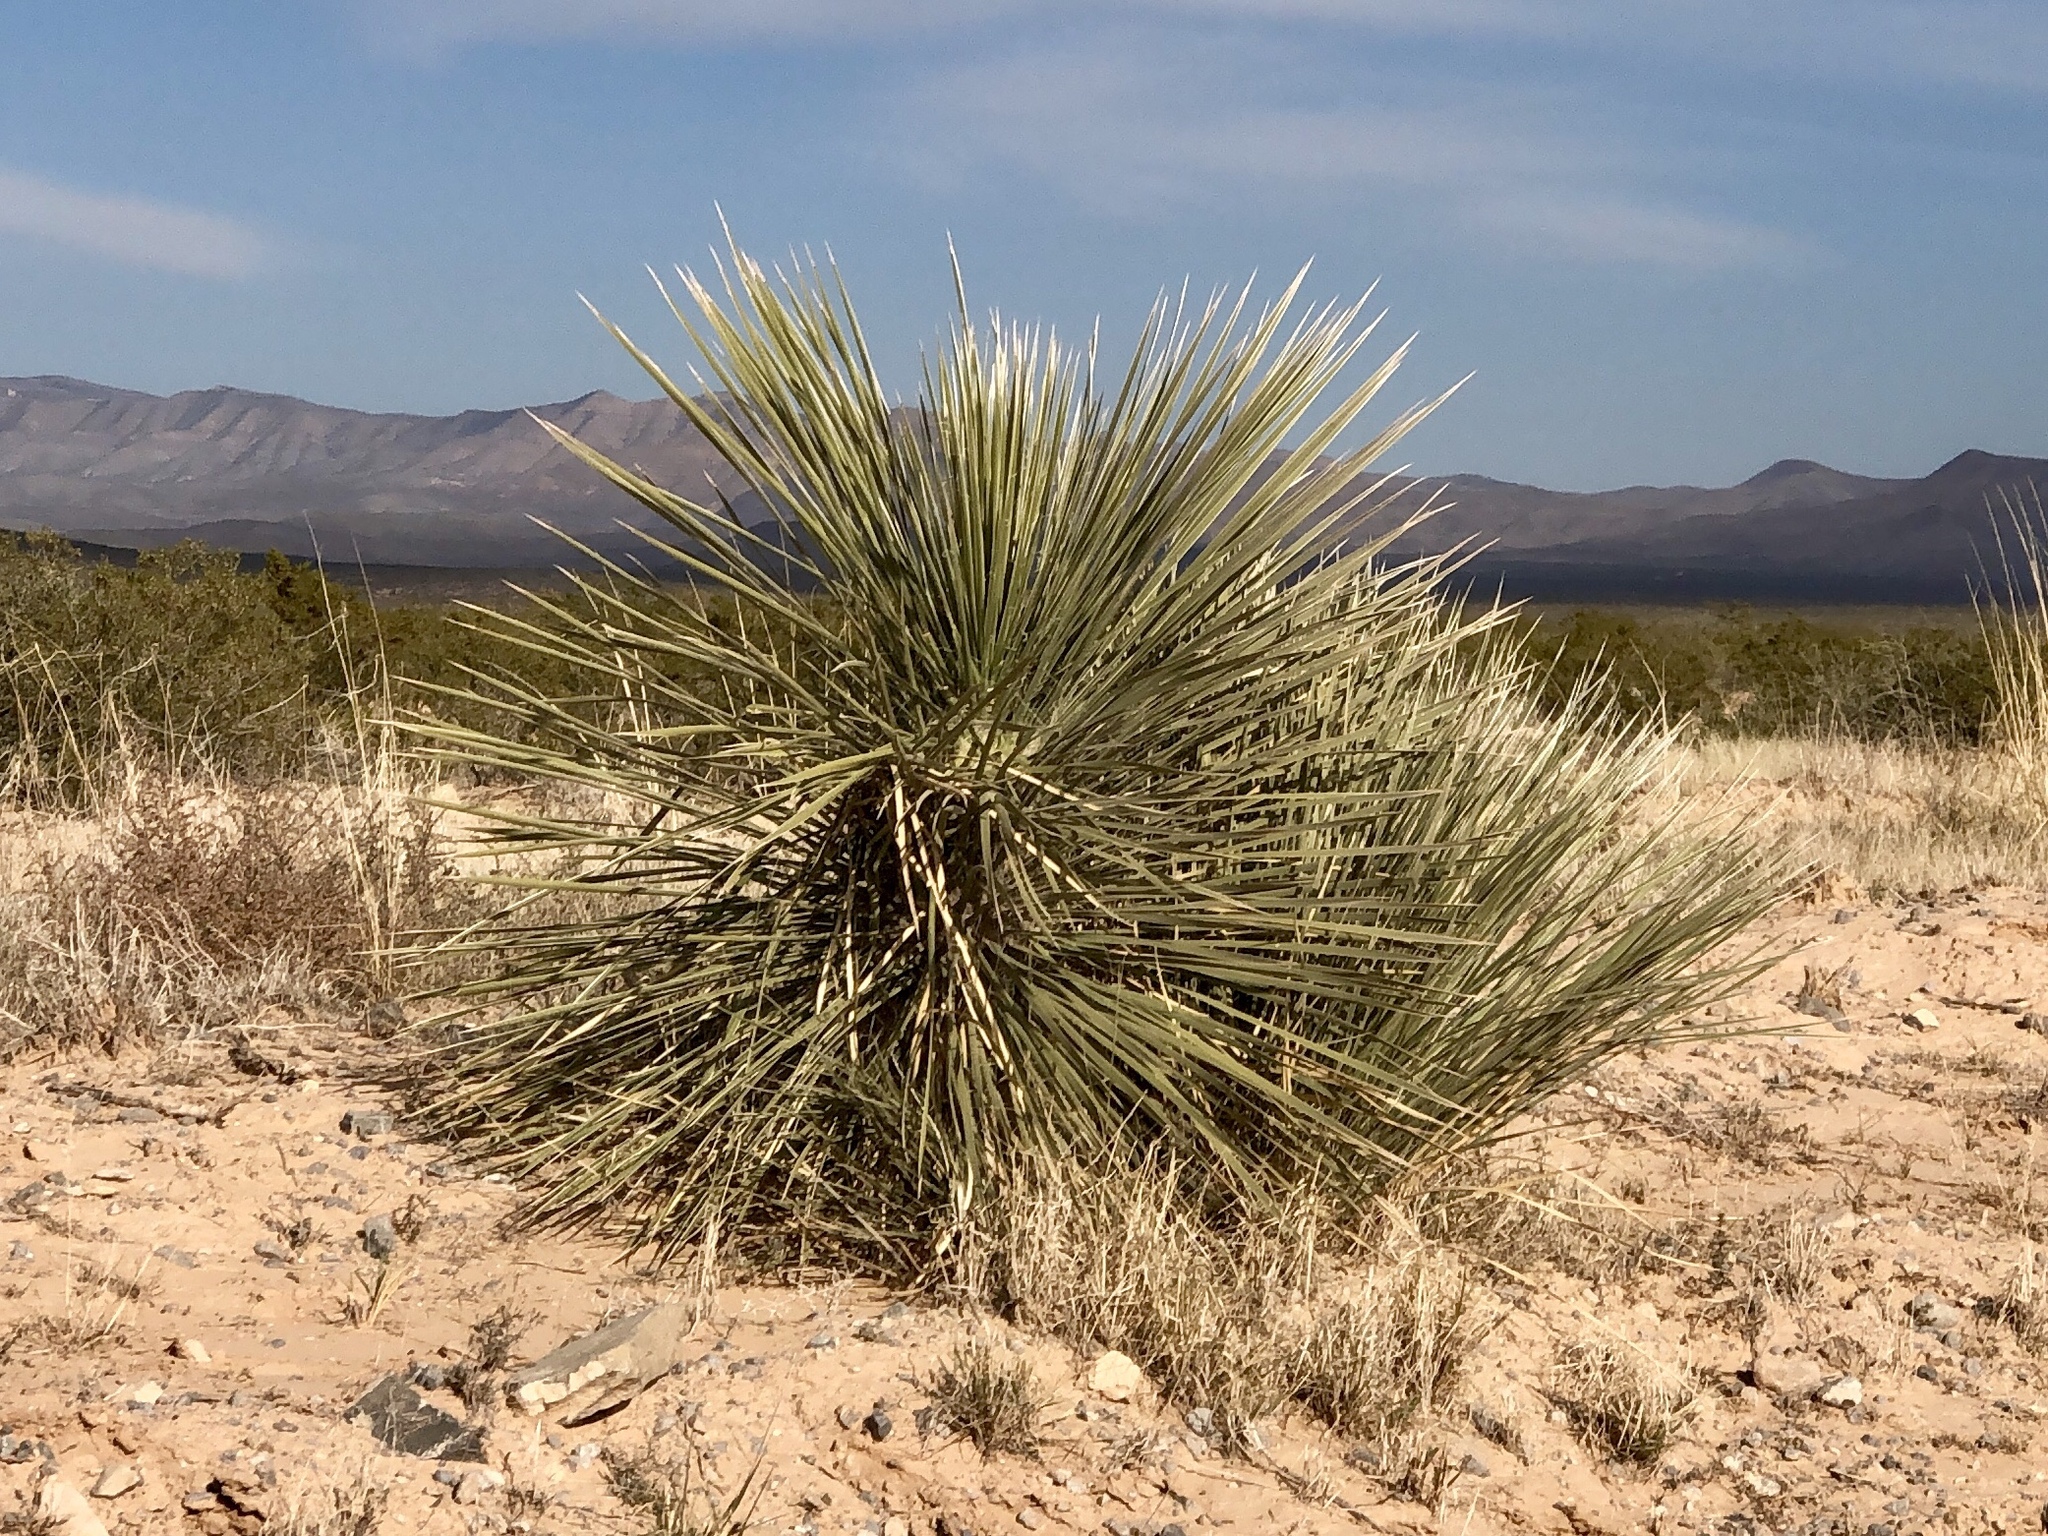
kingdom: Plantae
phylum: Tracheophyta
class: Liliopsida
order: Asparagales
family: Asparagaceae
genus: Yucca
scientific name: Yucca elata
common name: Palmella
